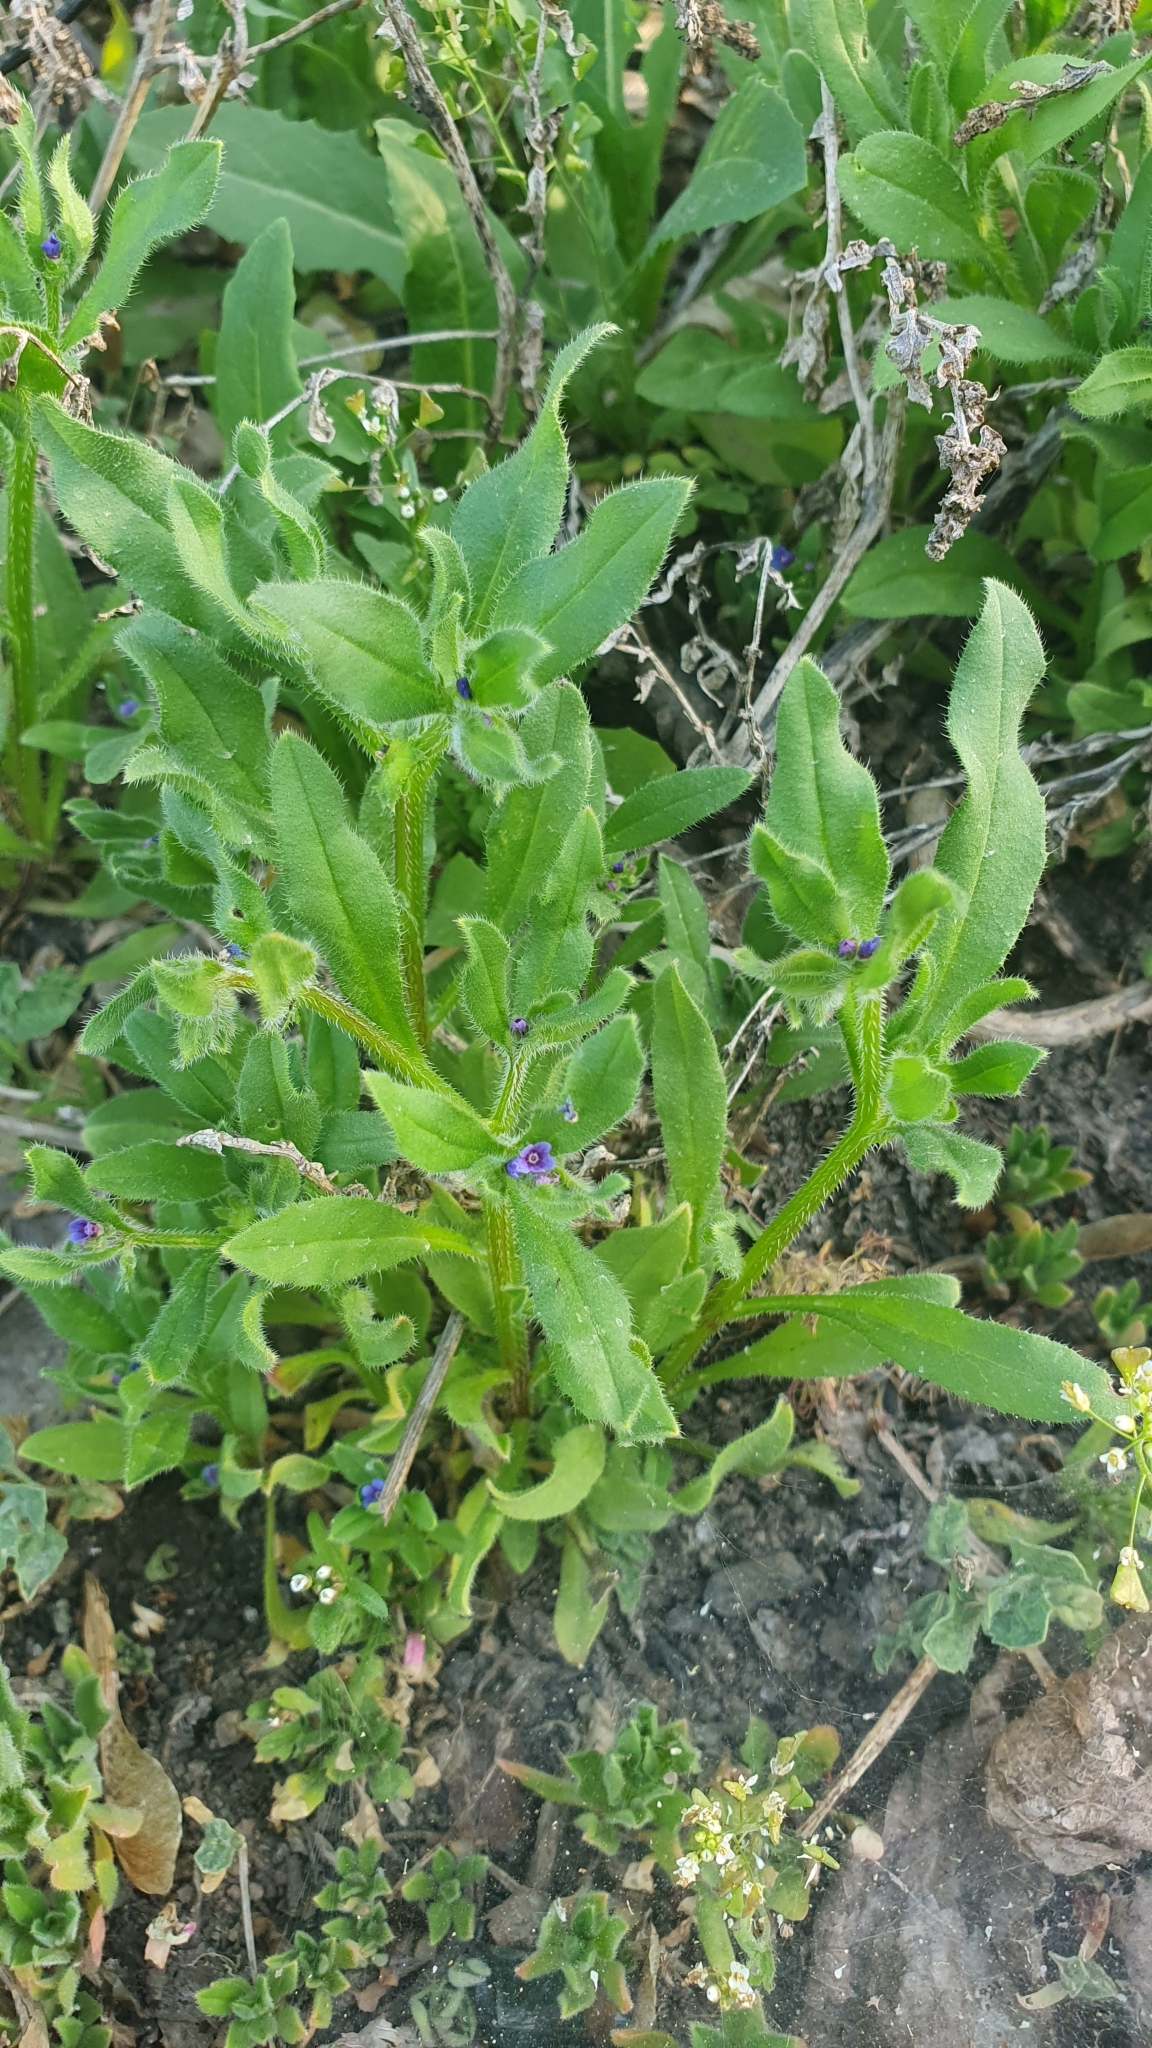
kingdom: Plantae
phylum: Tracheophyta
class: Magnoliopsida
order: Boraginales
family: Boraginaceae
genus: Asperugo
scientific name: Asperugo procumbens
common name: Madwort
